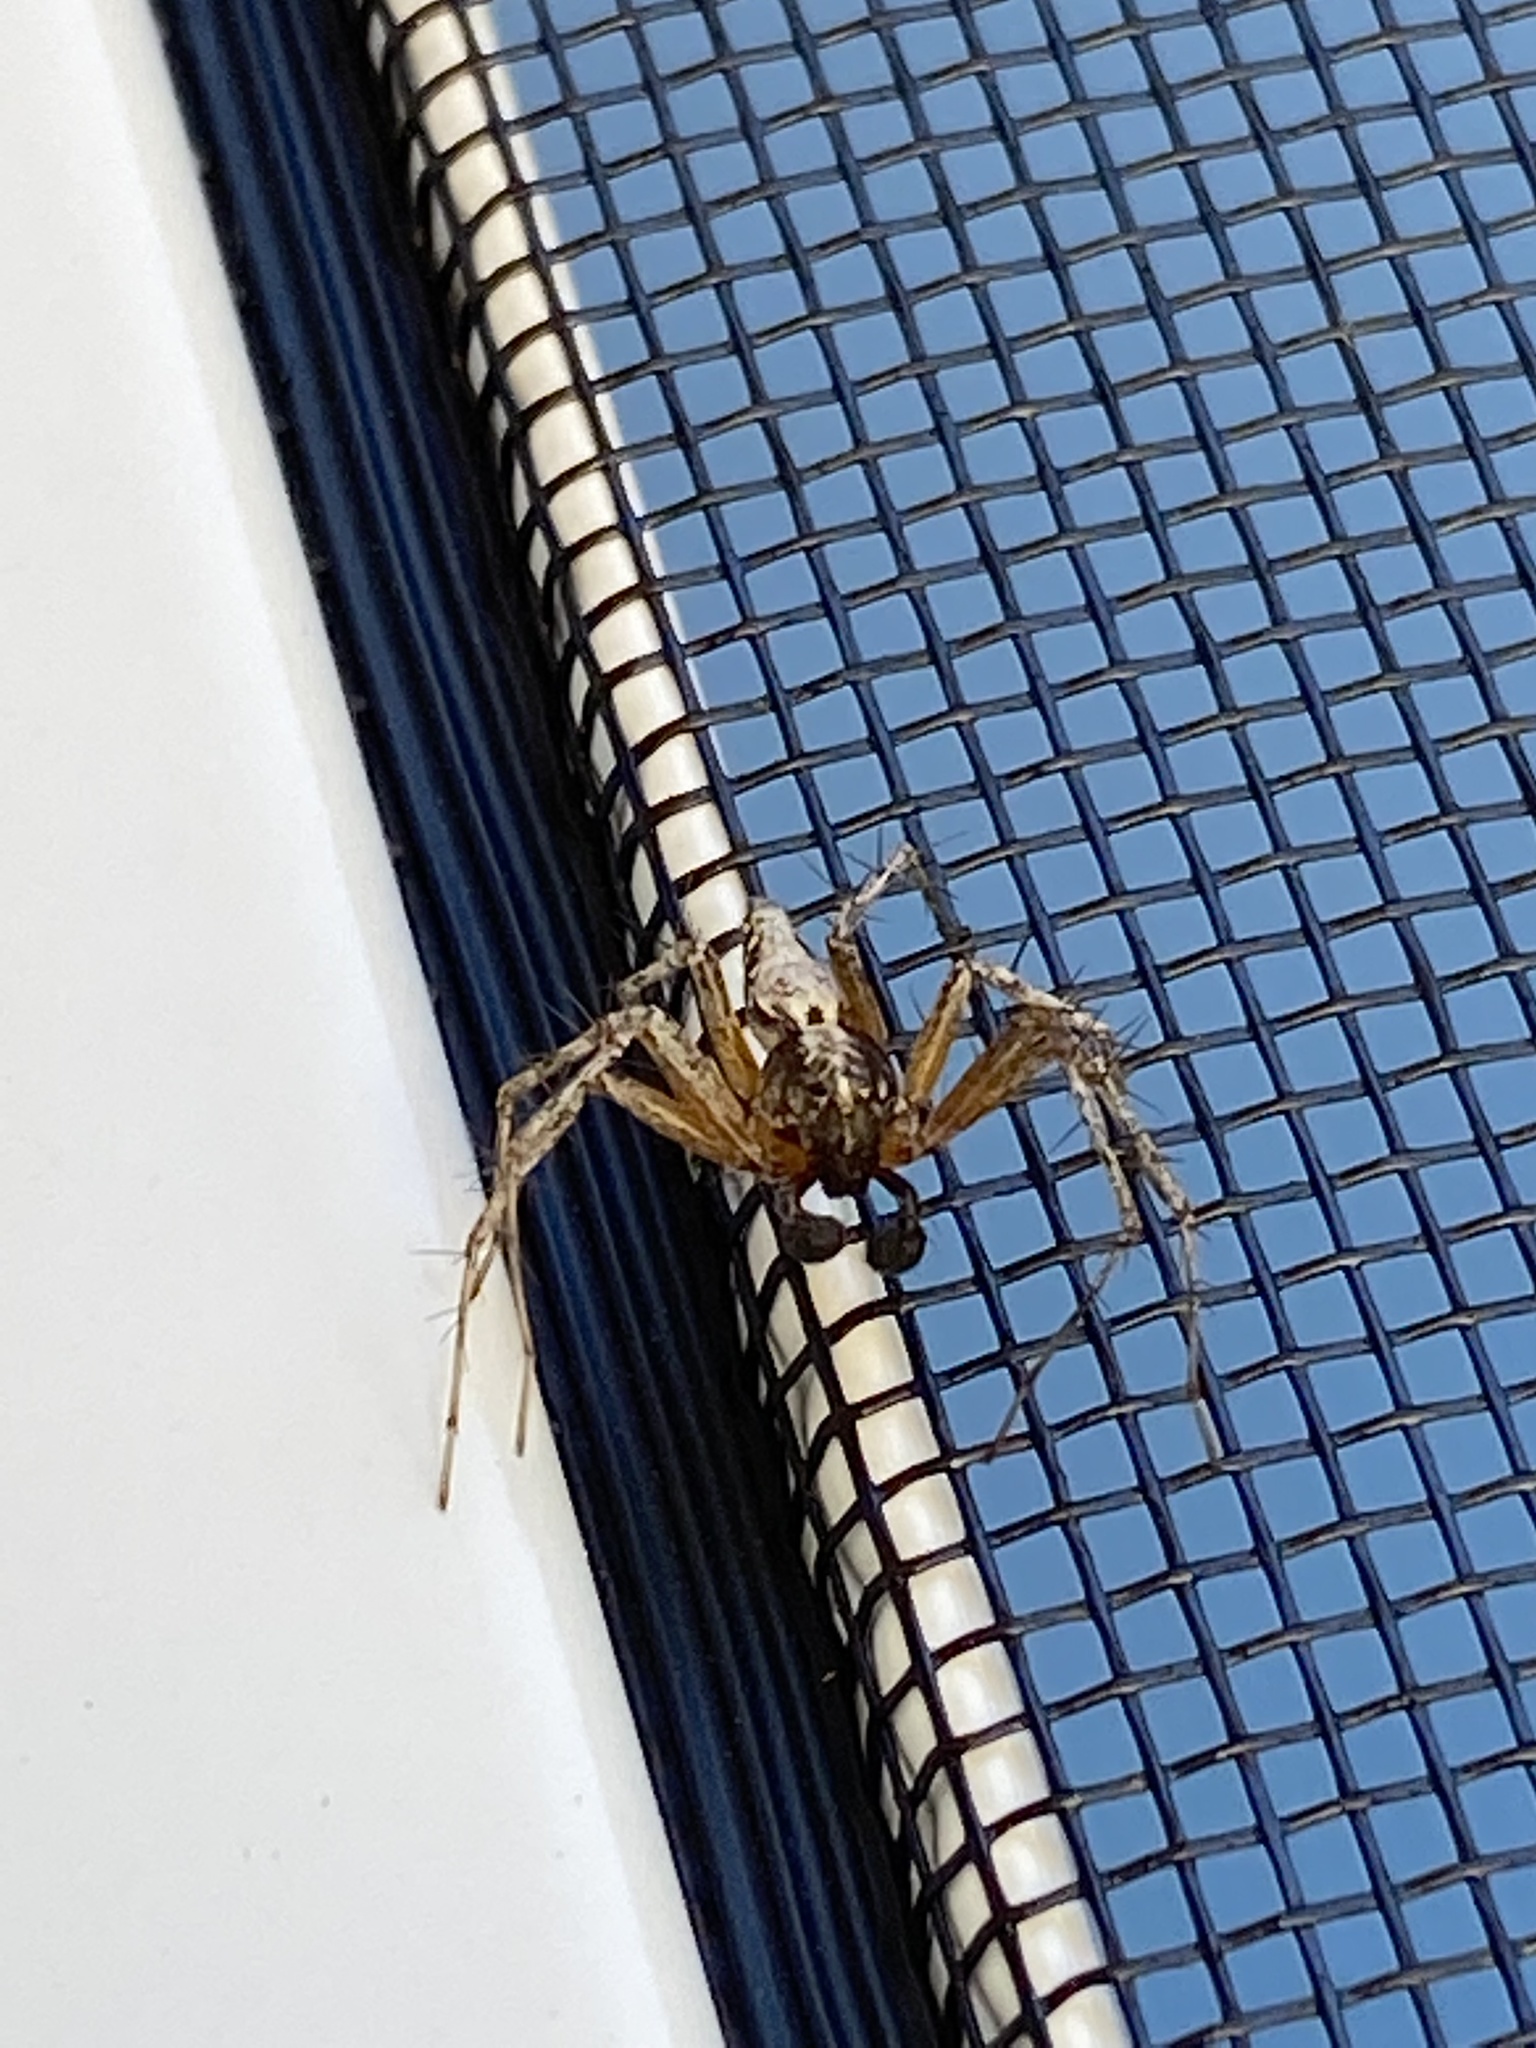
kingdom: Animalia
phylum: Arthropoda
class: Arachnida
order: Araneae
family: Oxyopidae
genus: Oxyopes
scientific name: Oxyopes scalaris
